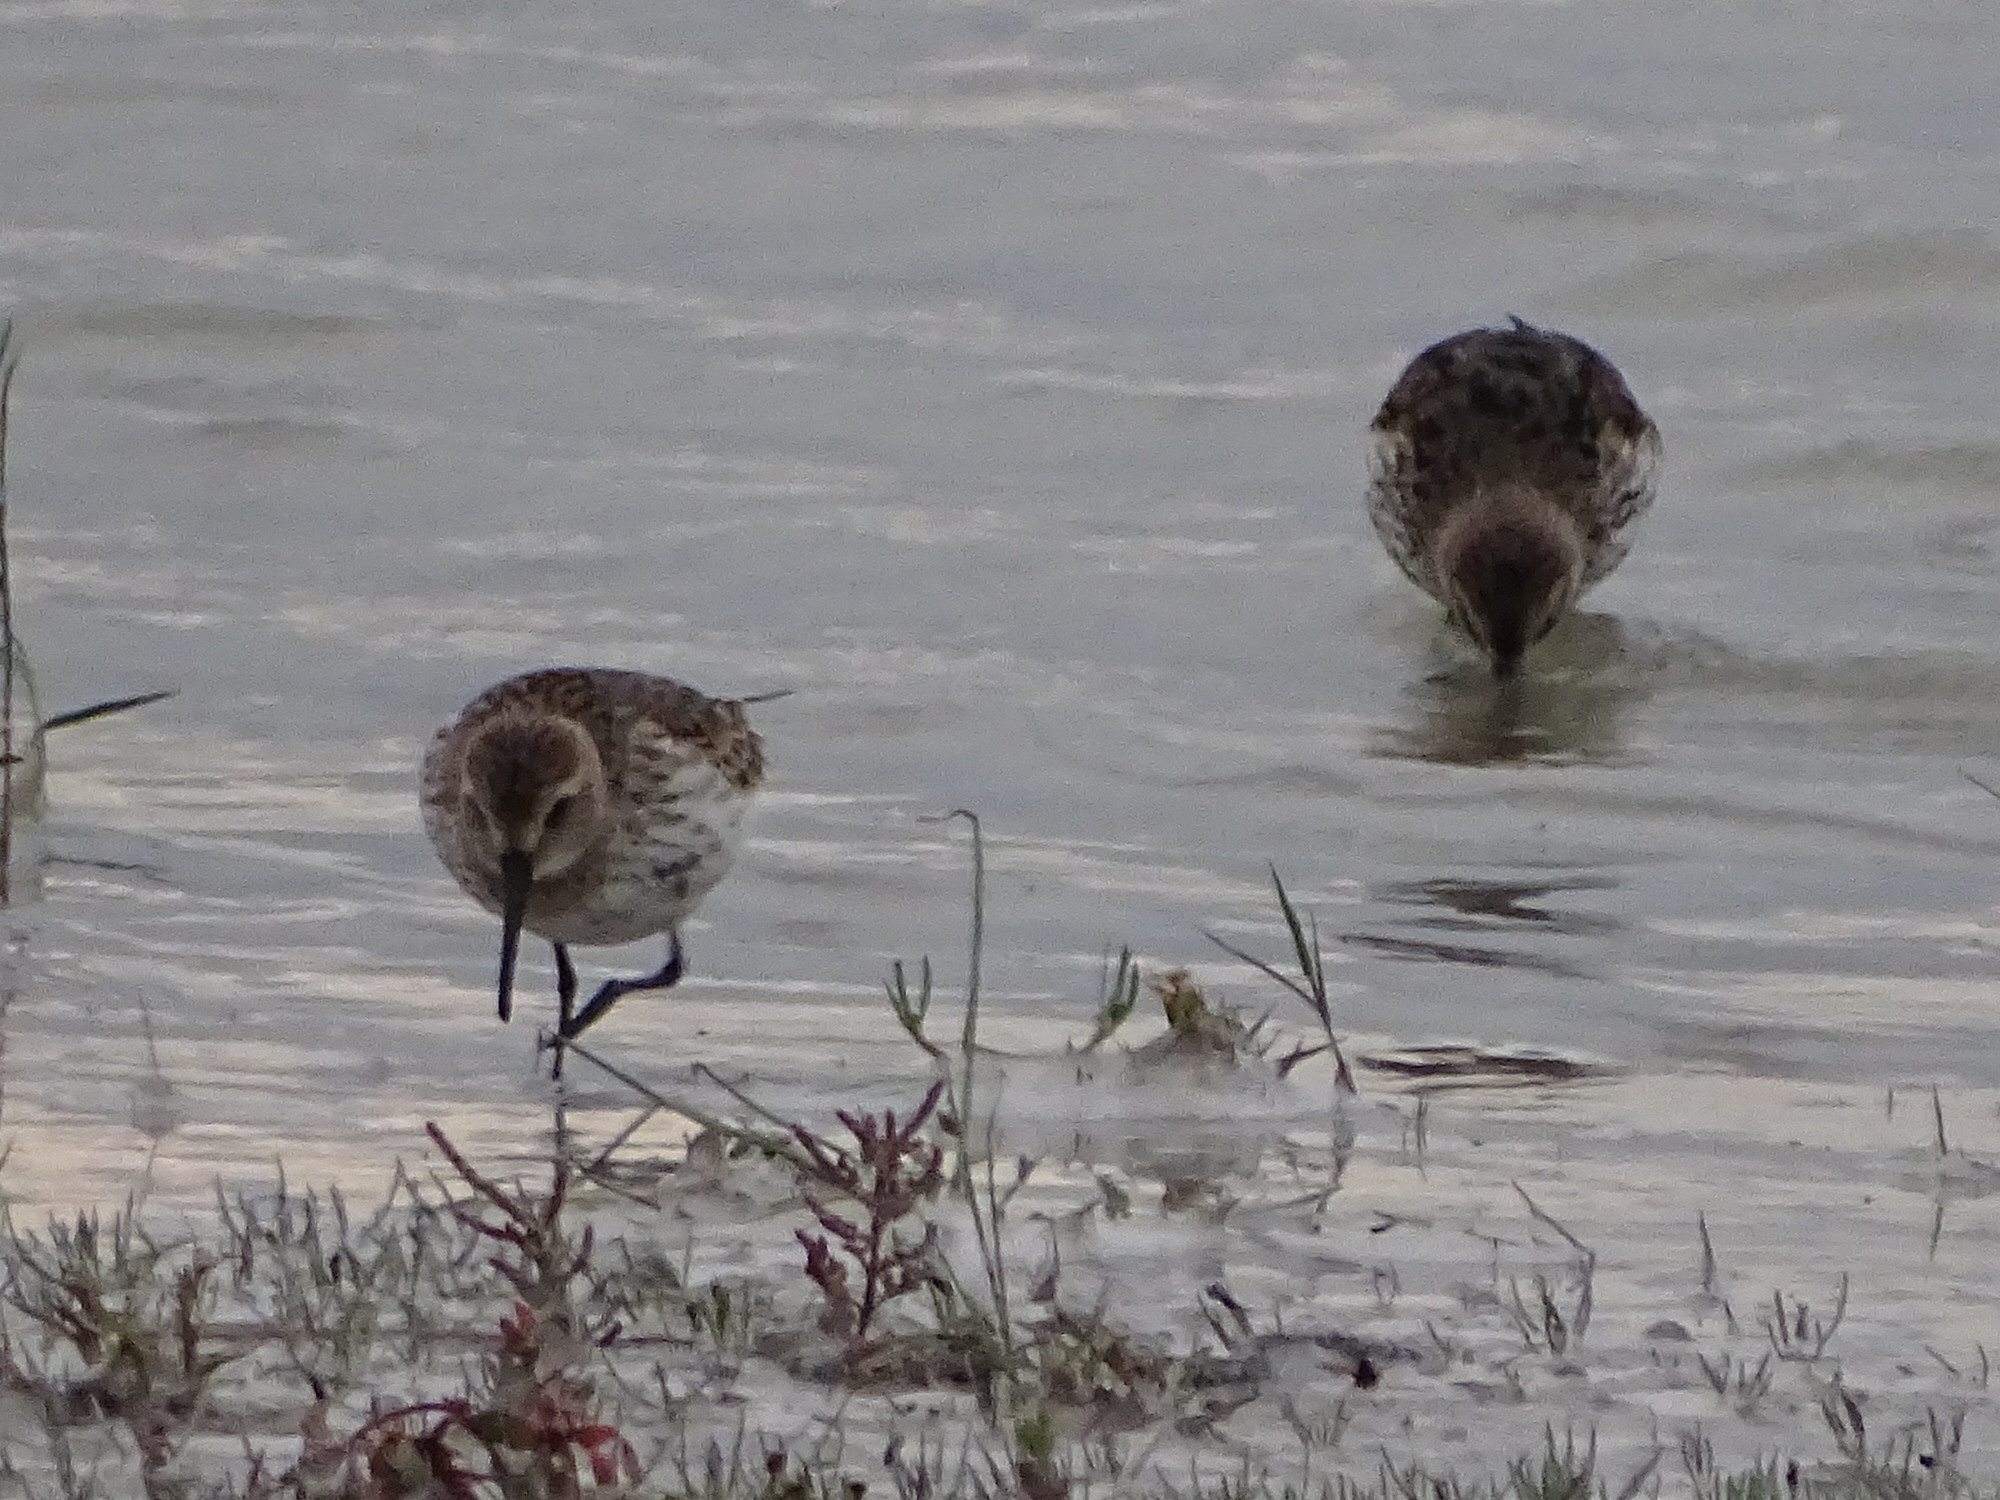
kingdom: Animalia
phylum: Chordata
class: Aves
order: Charadriiformes
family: Scolopacidae
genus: Calidris
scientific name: Calidris alpina
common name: Dunlin
